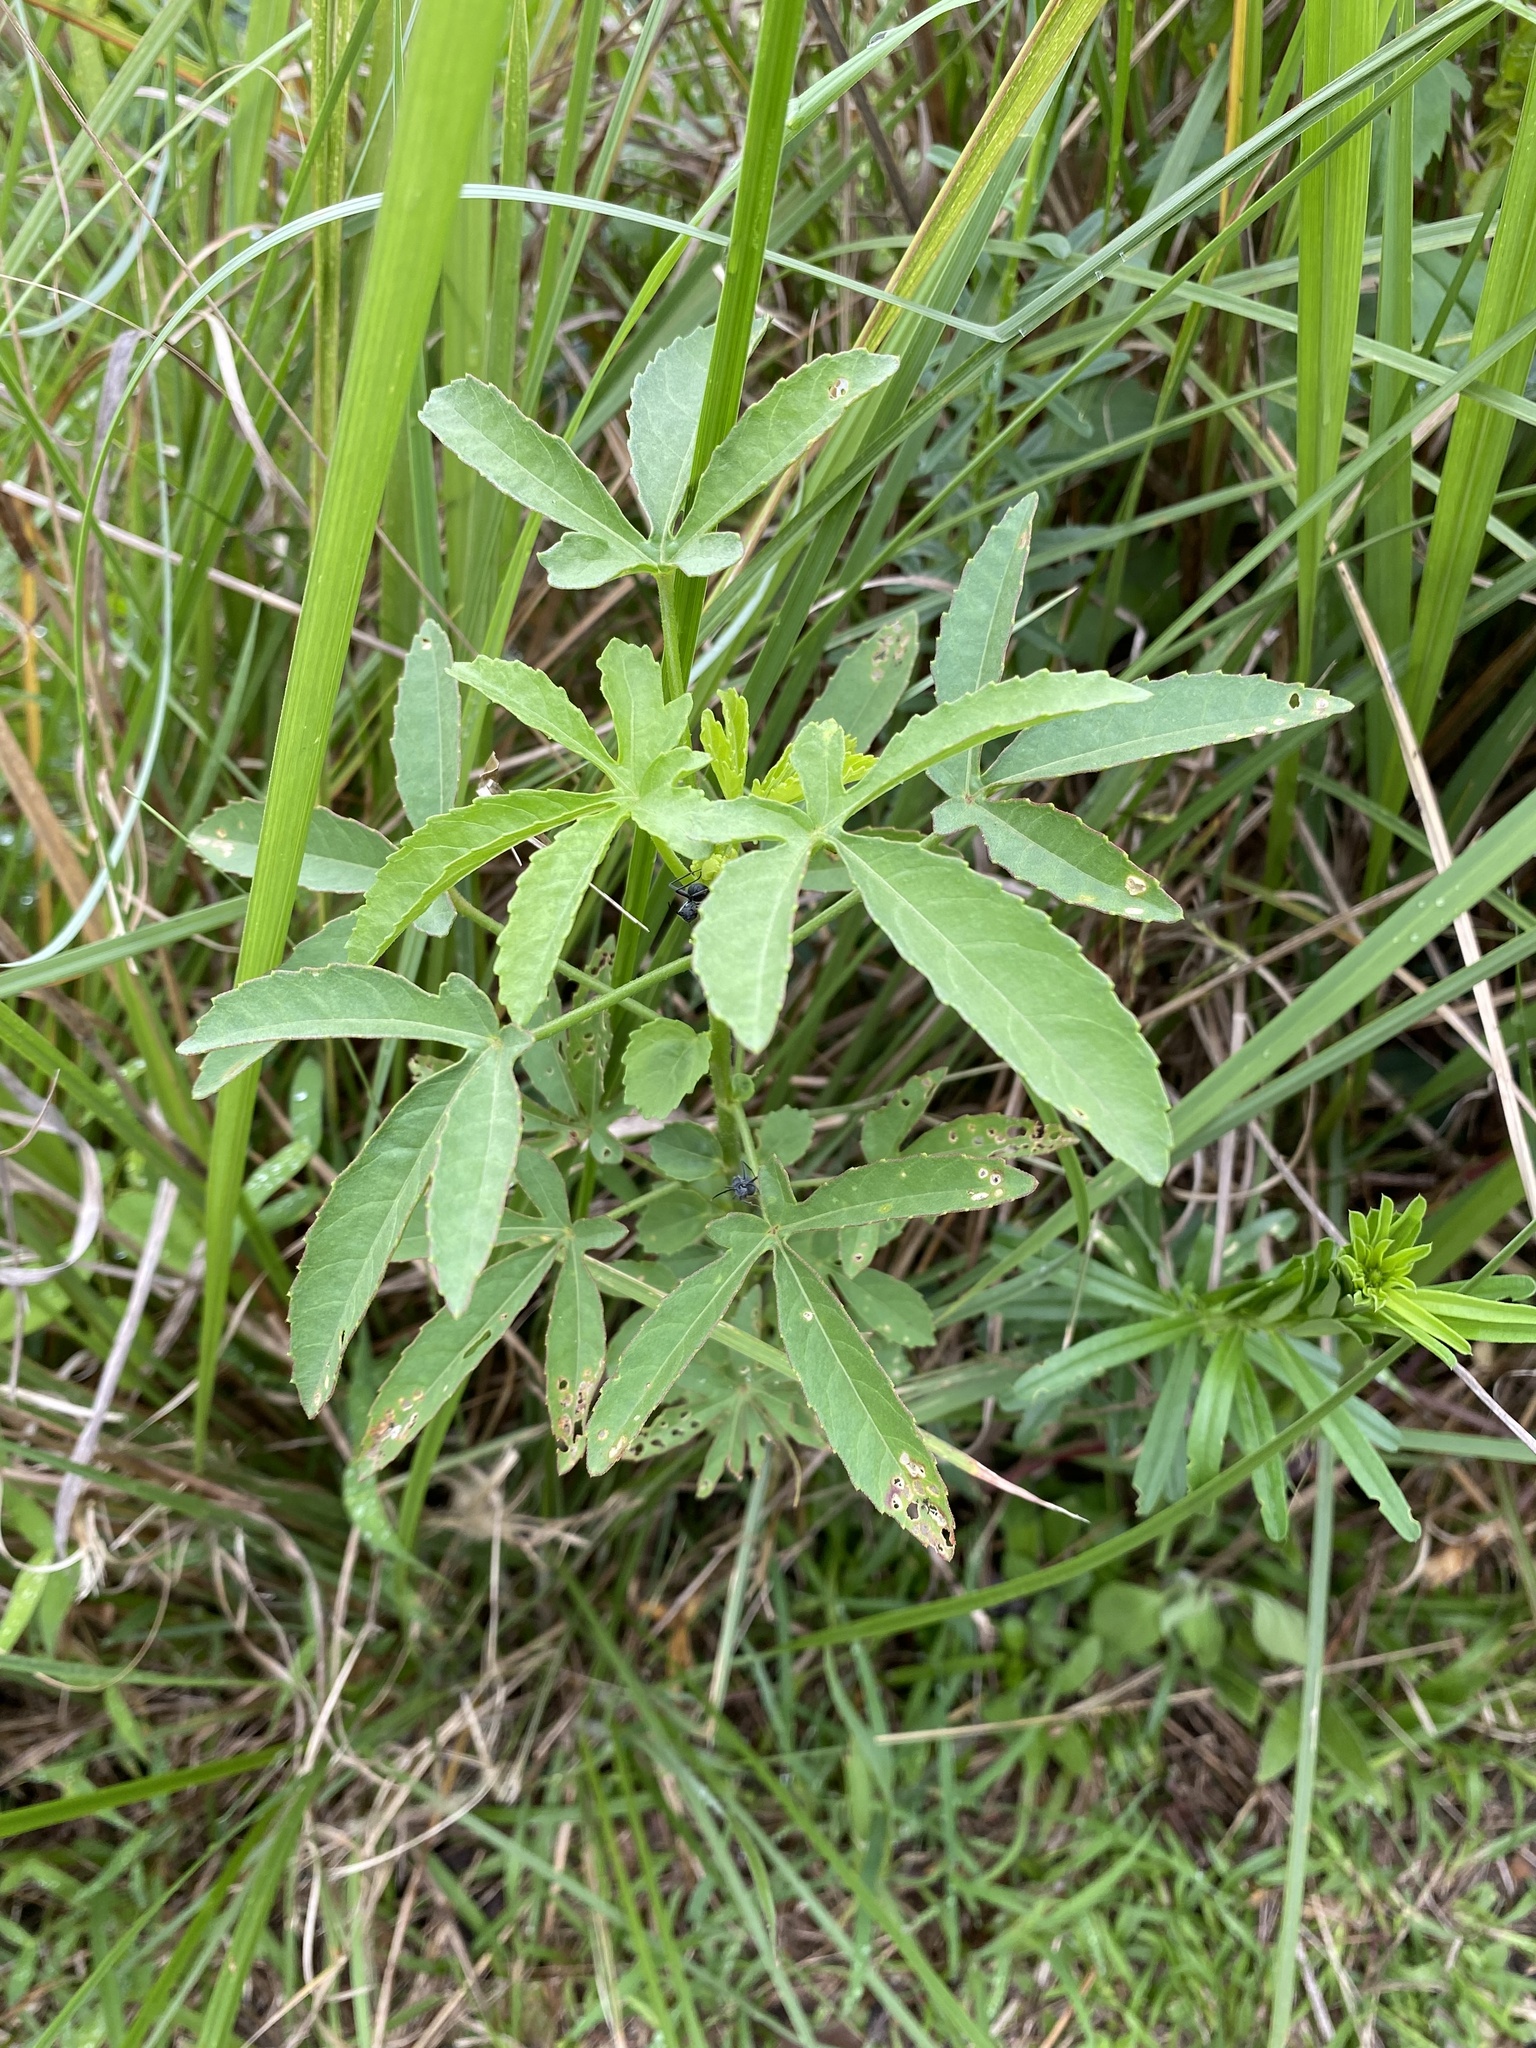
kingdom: Plantae
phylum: Tracheophyta
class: Magnoliopsida
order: Malvales
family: Malvaceae
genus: Hibiscus
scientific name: Hibiscus cannabinus
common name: Brown indianhemp
